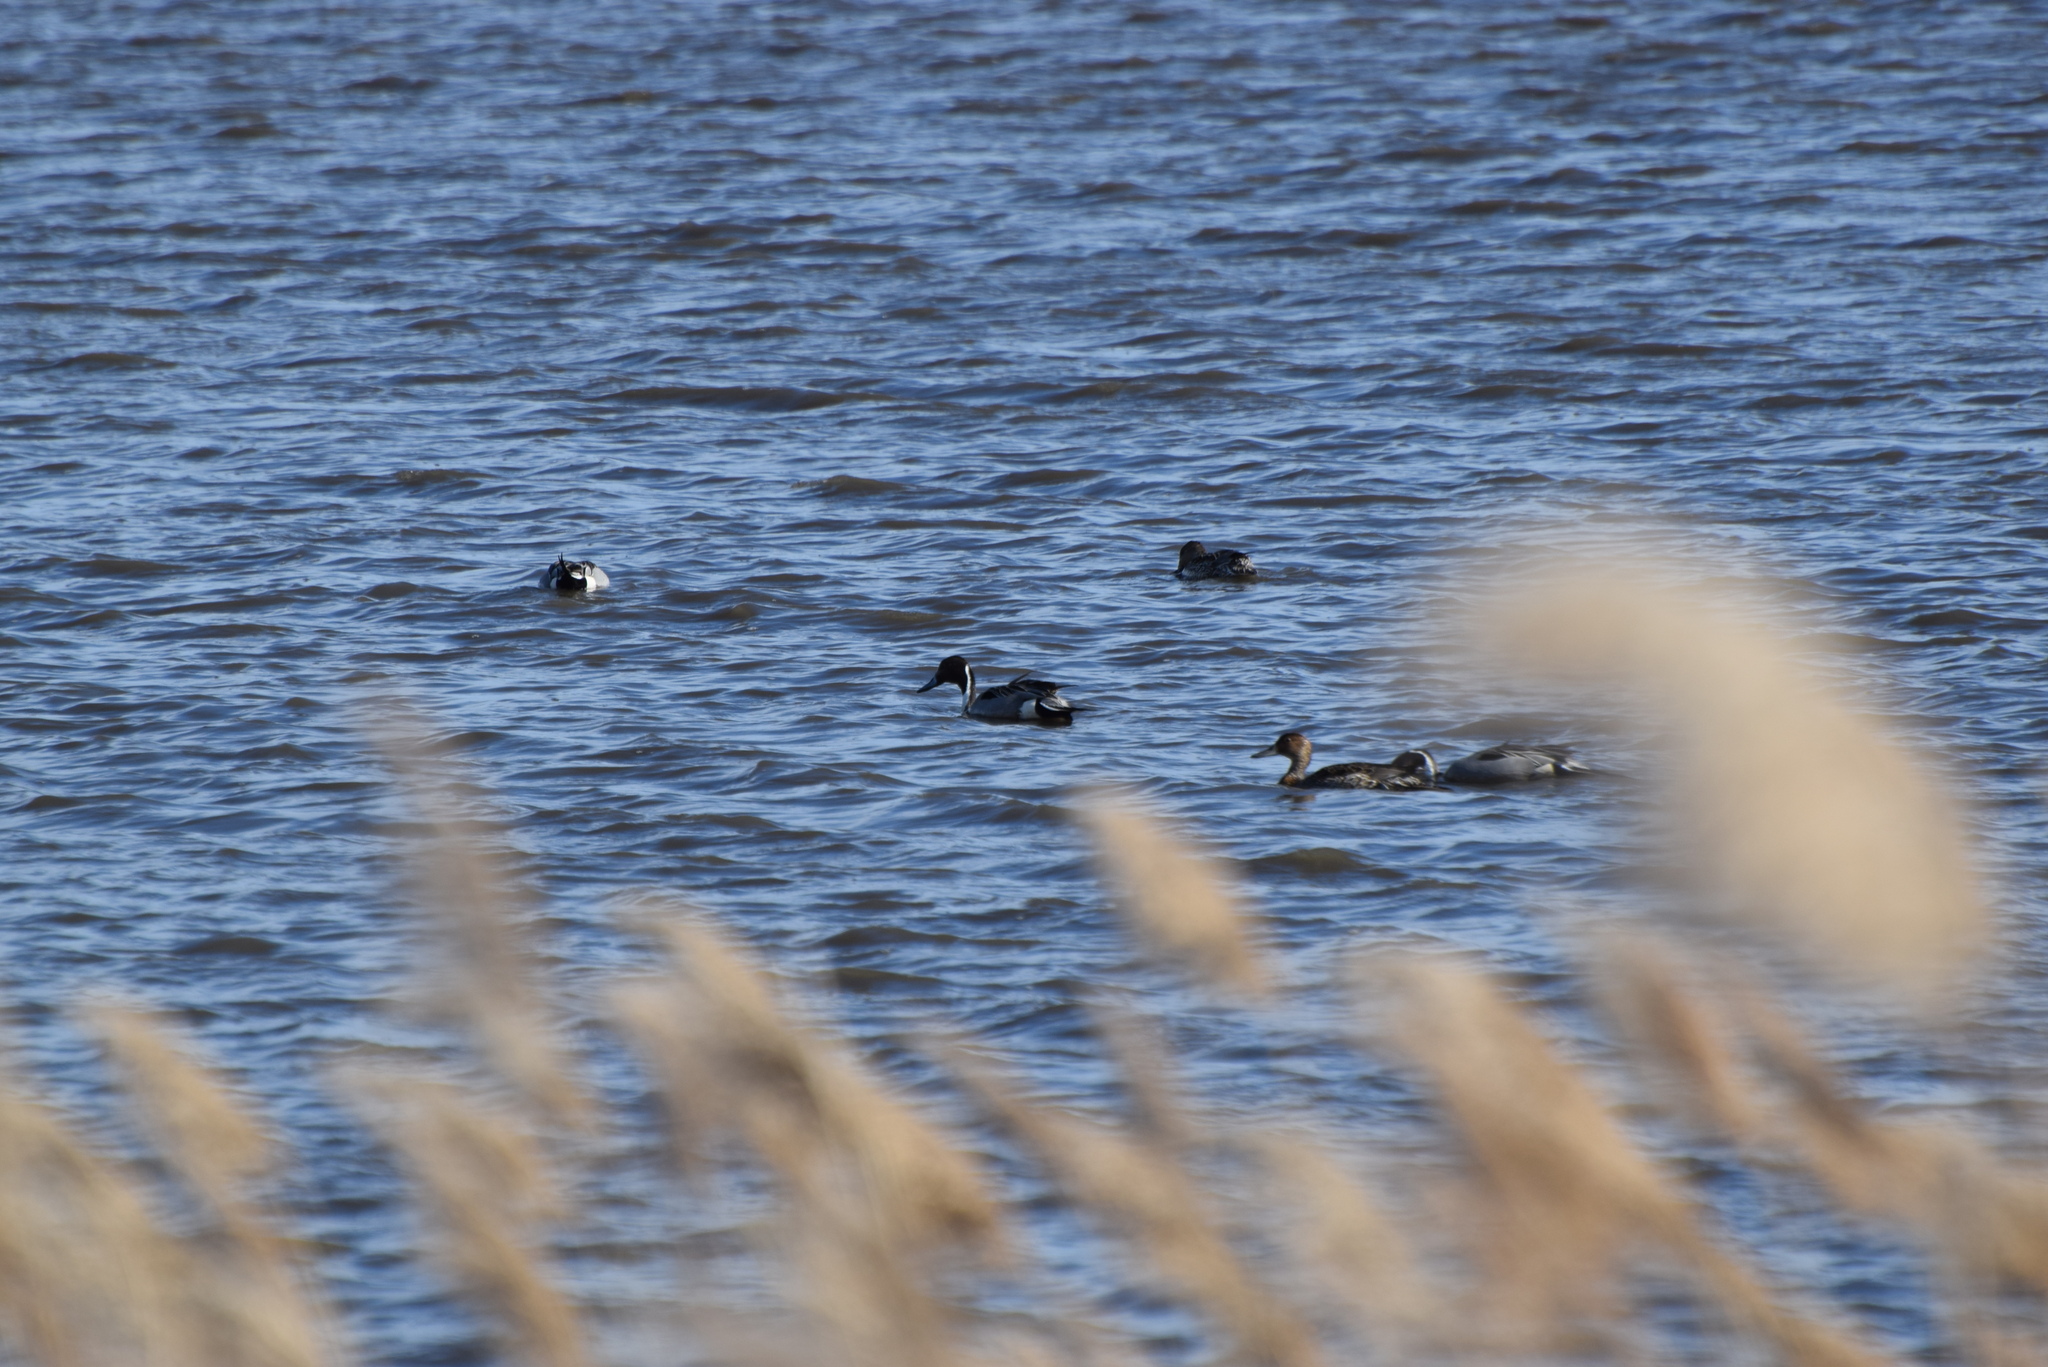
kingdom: Animalia
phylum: Chordata
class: Aves
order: Anseriformes
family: Anatidae
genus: Anas
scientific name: Anas acuta
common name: Northern pintail
